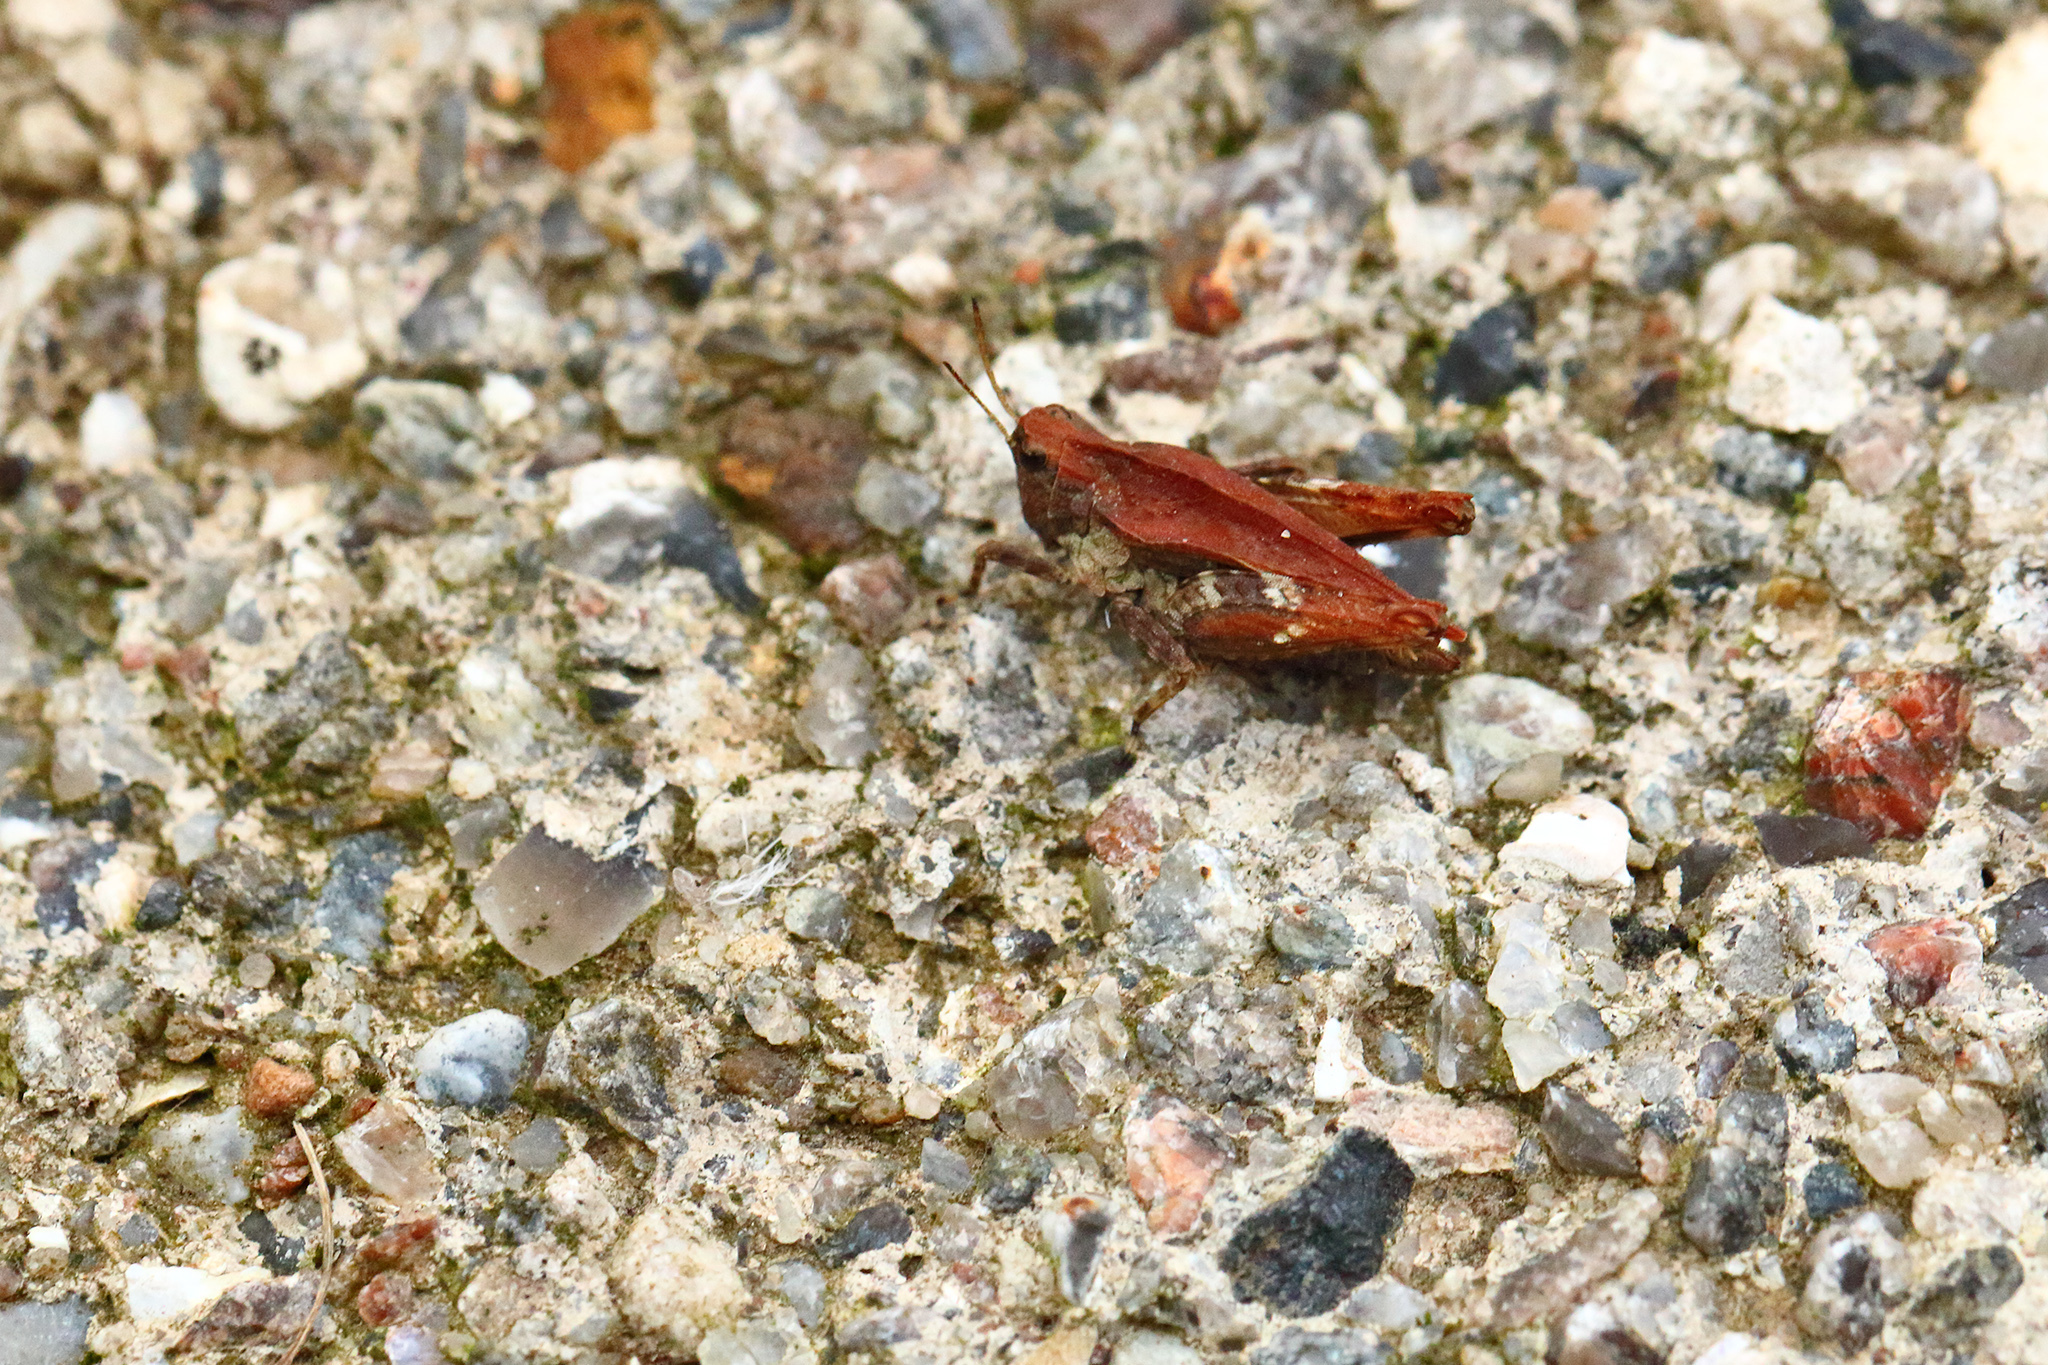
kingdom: Animalia
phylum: Arthropoda
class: Insecta
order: Orthoptera
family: Tetrigidae
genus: Tetrix
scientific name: Tetrix undulata
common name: Common groundhopper
